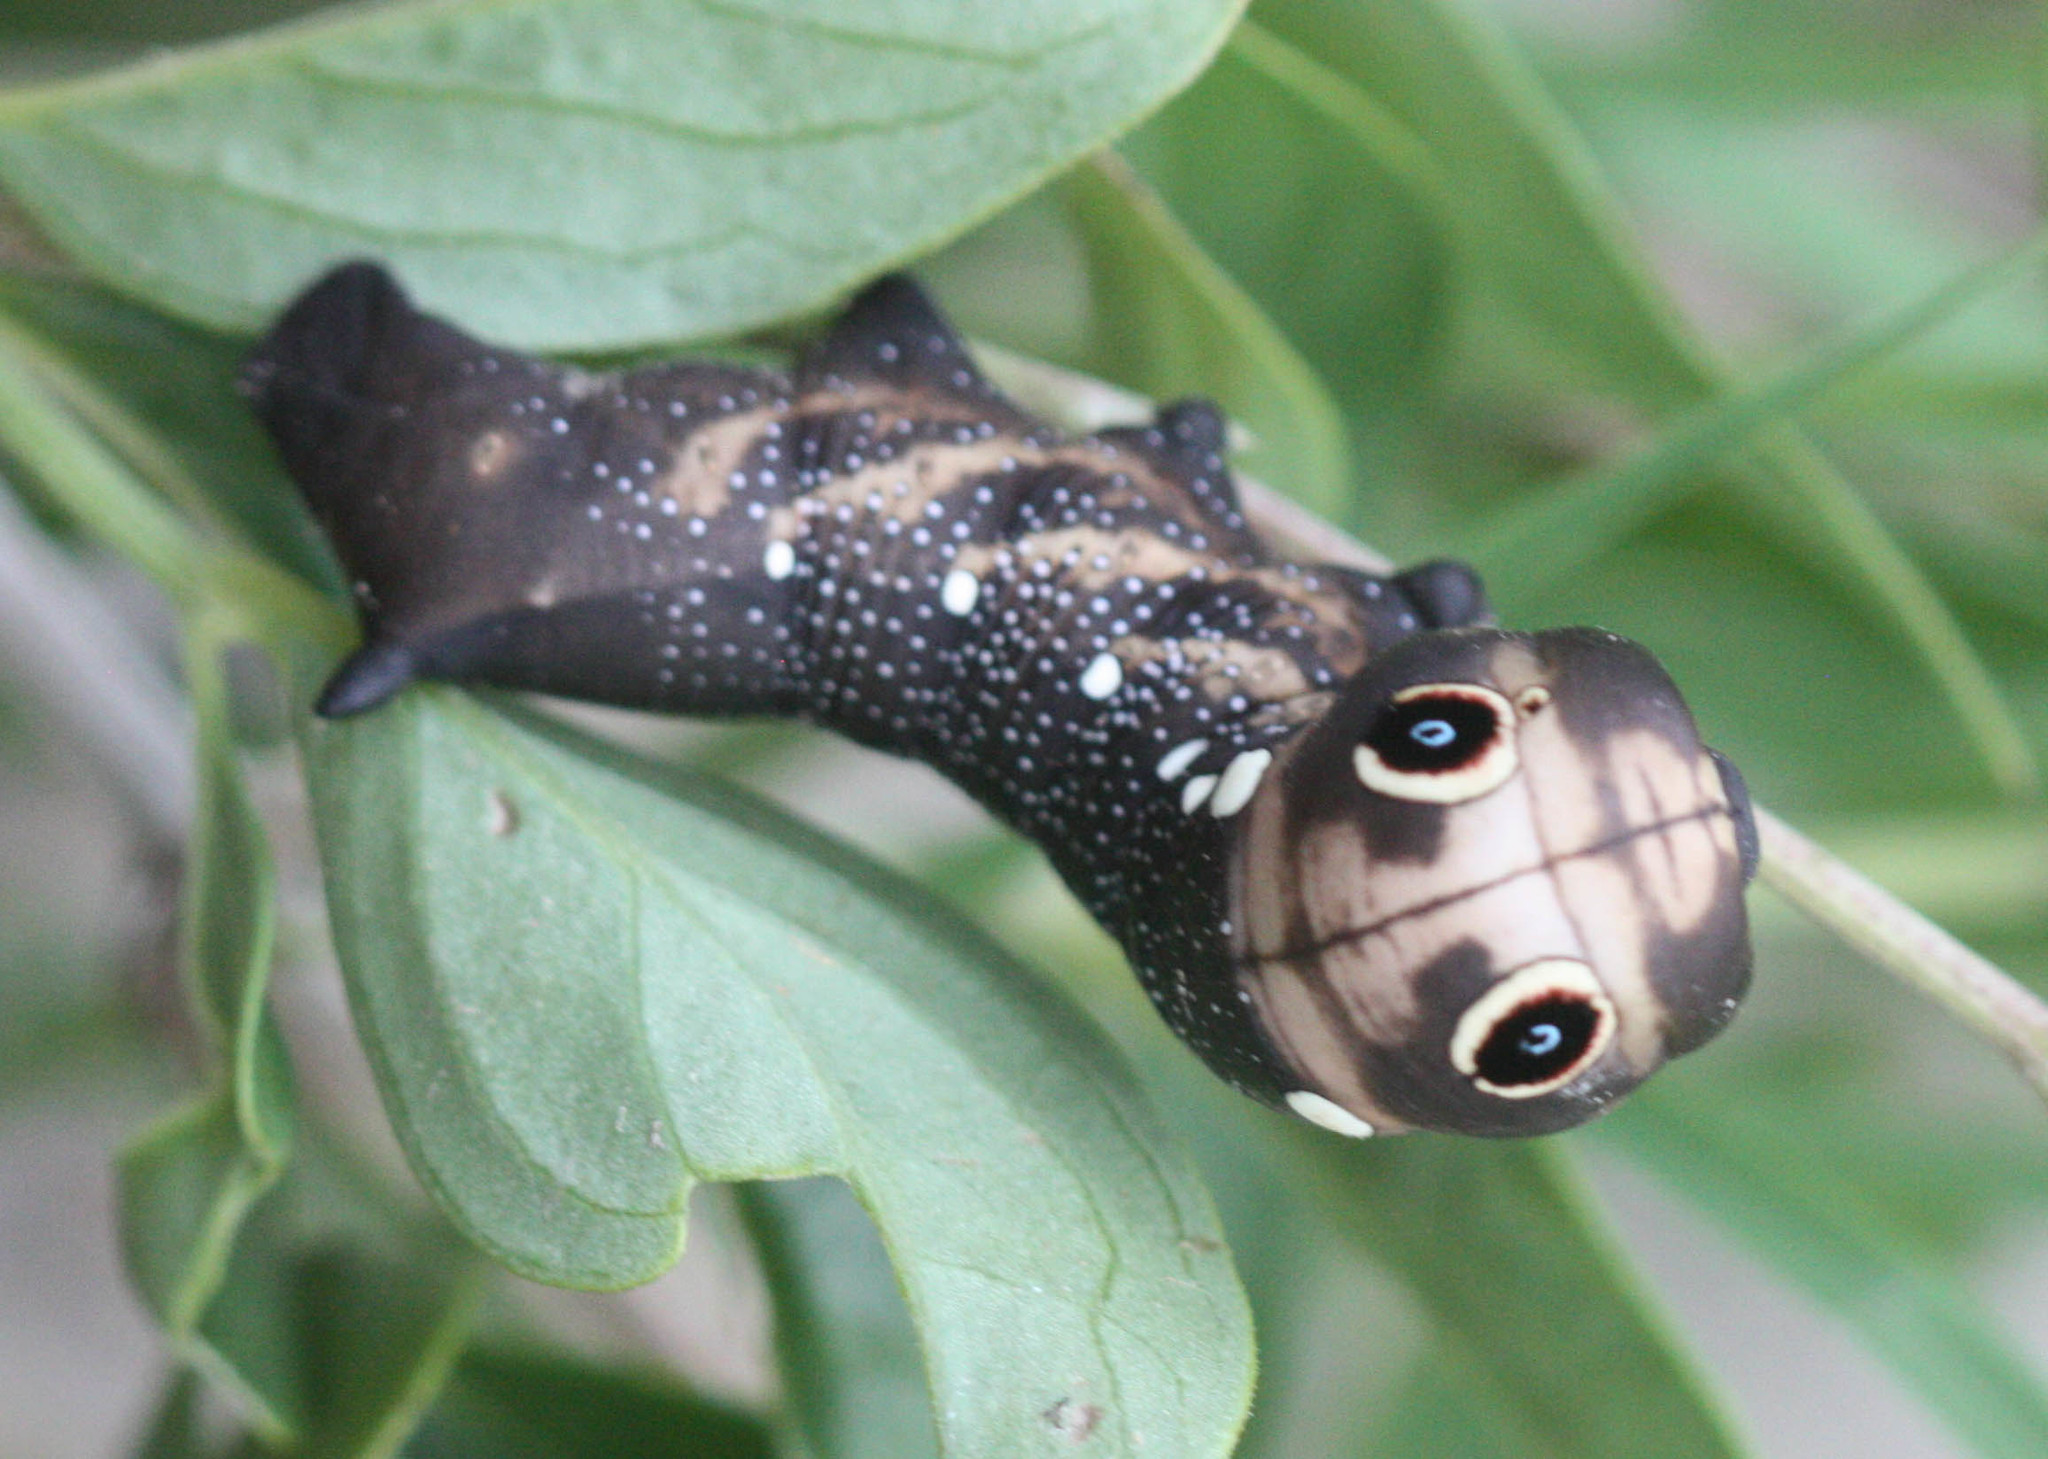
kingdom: Animalia
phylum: Arthropoda
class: Insecta
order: Lepidoptera
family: Sphingidae
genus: Xylophanes
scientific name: Xylophanes falco
